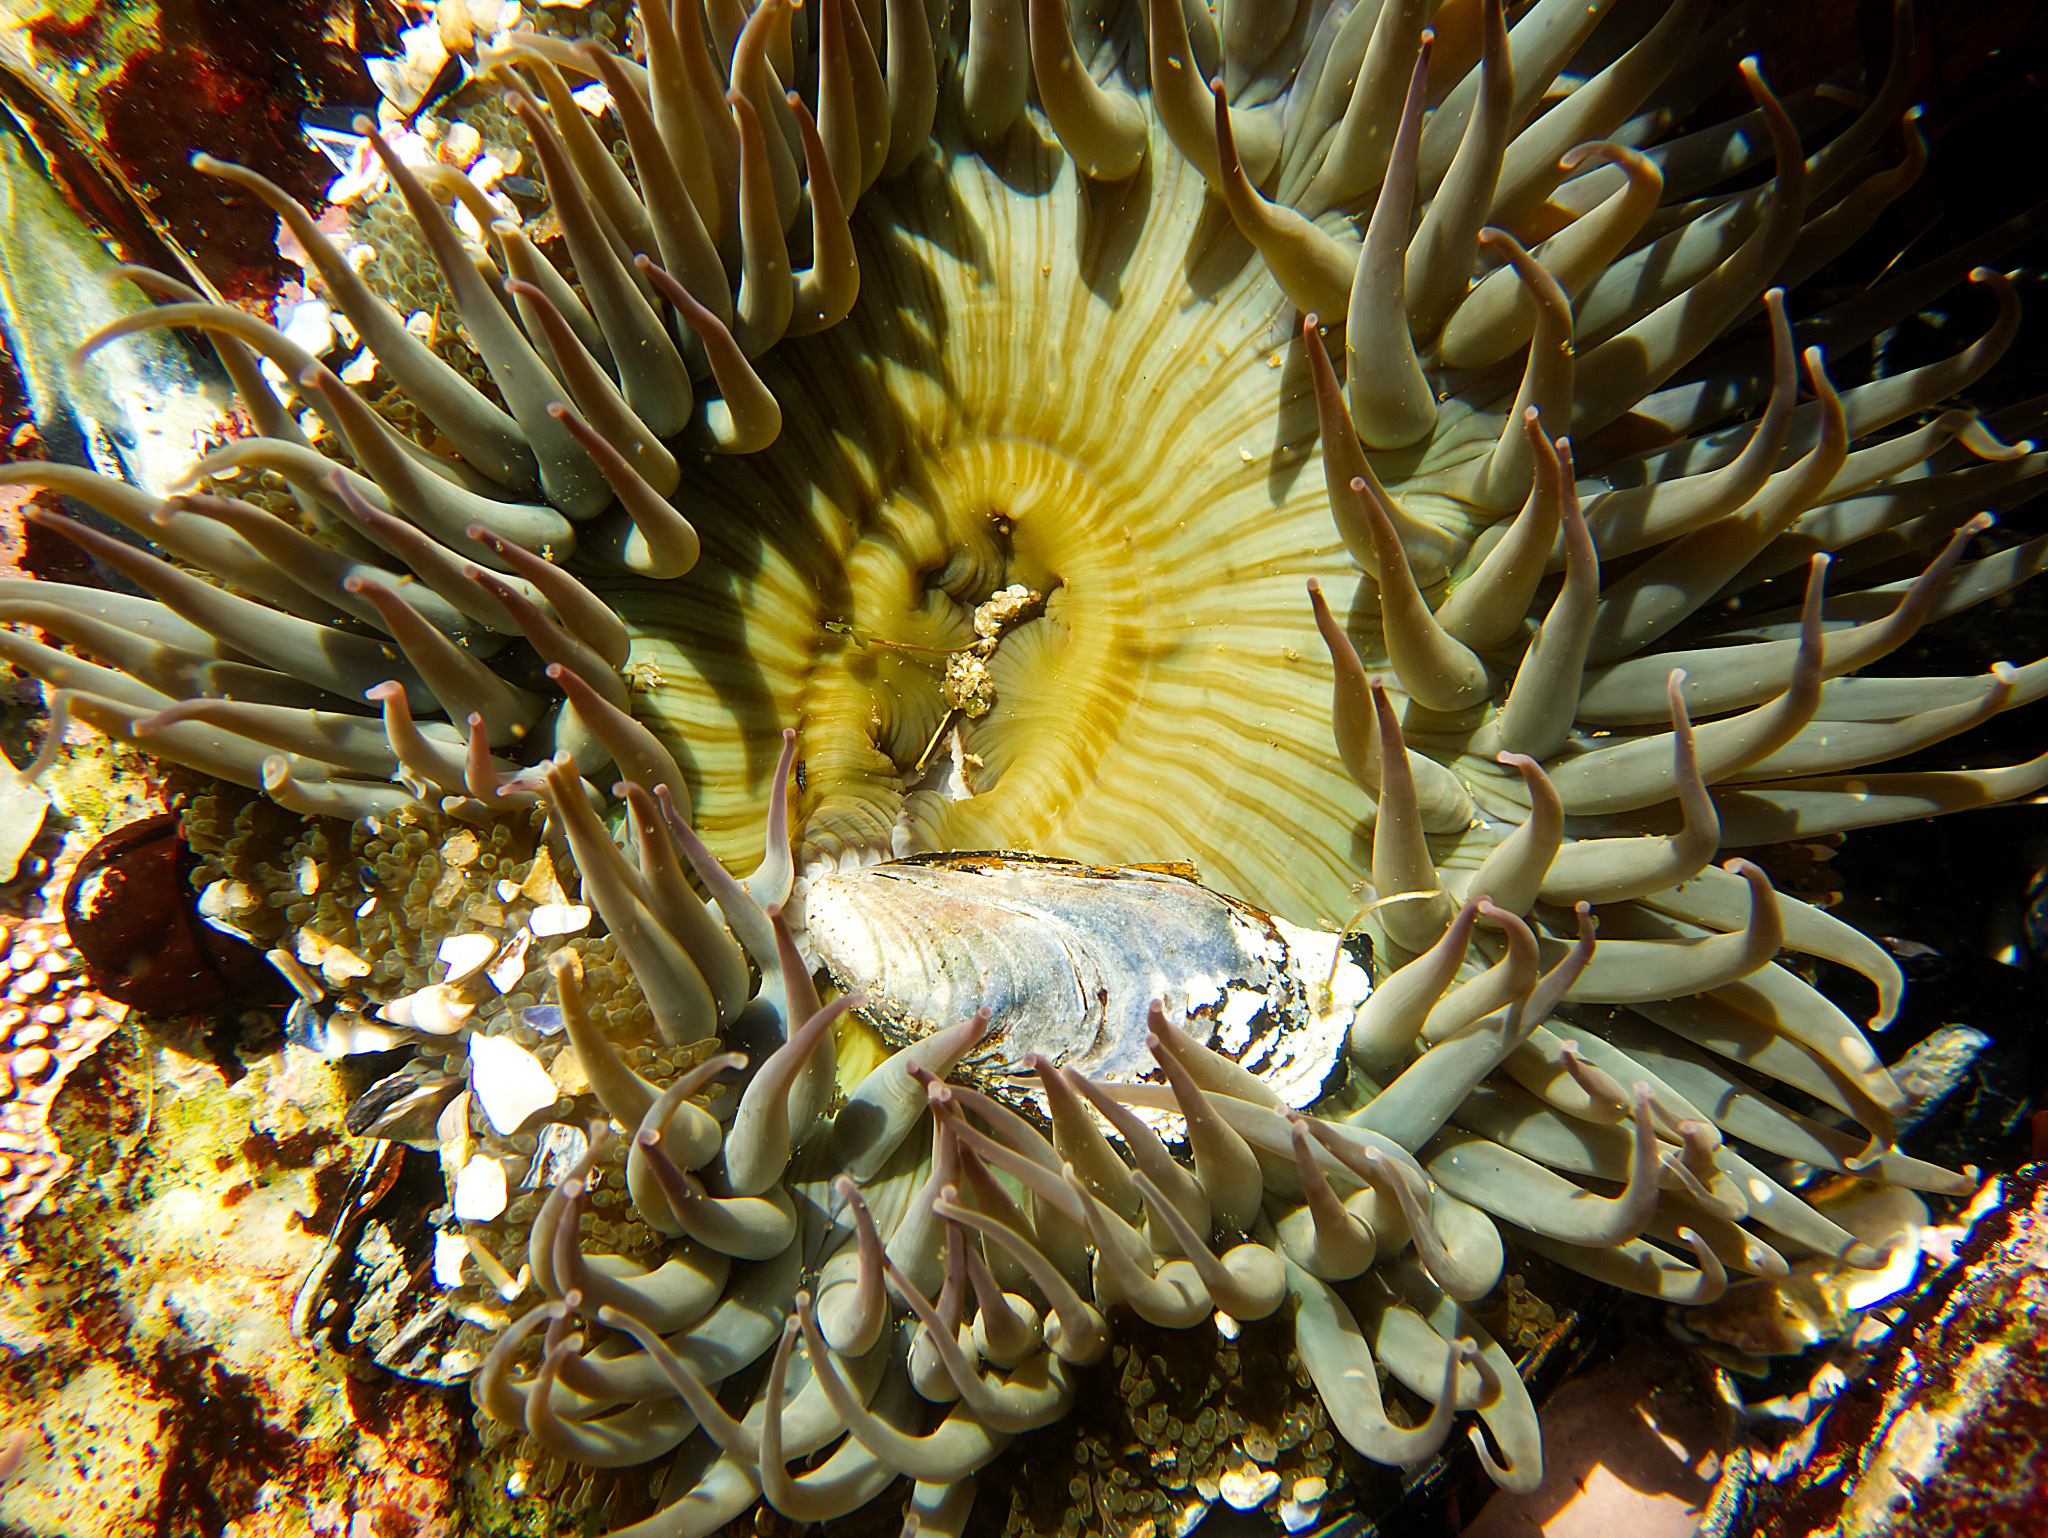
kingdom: Animalia
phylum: Cnidaria
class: Anthozoa
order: Actiniaria
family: Actiniidae
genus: Anthopleura
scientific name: Anthopleura sola
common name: Sun anemone
